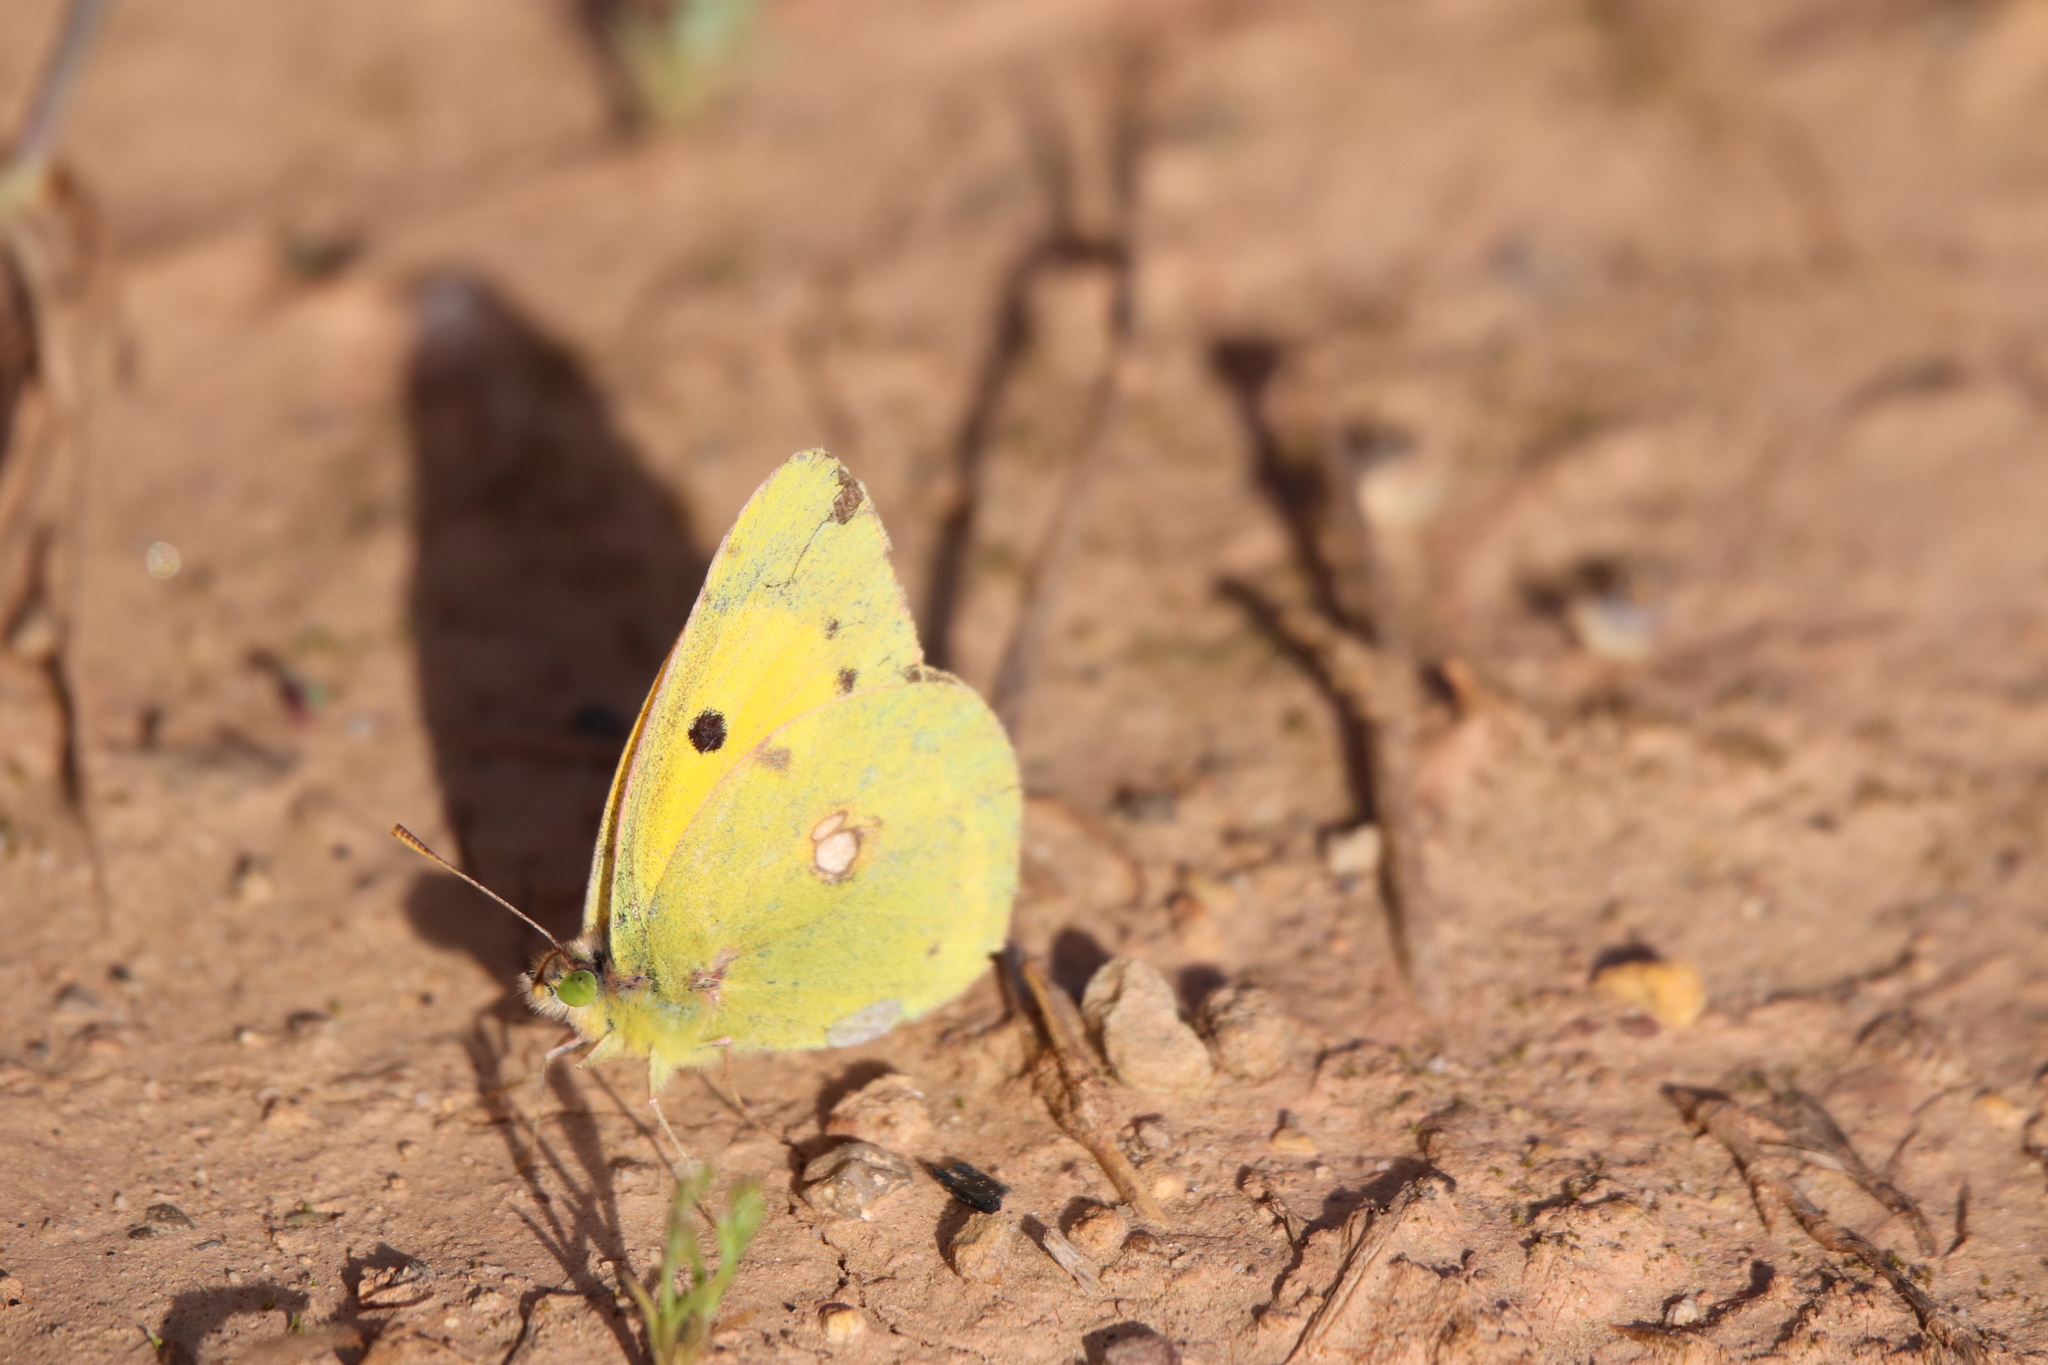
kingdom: Animalia
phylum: Arthropoda
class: Insecta
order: Lepidoptera
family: Pieridae
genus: Colias
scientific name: Colias croceus
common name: Clouded yellow
